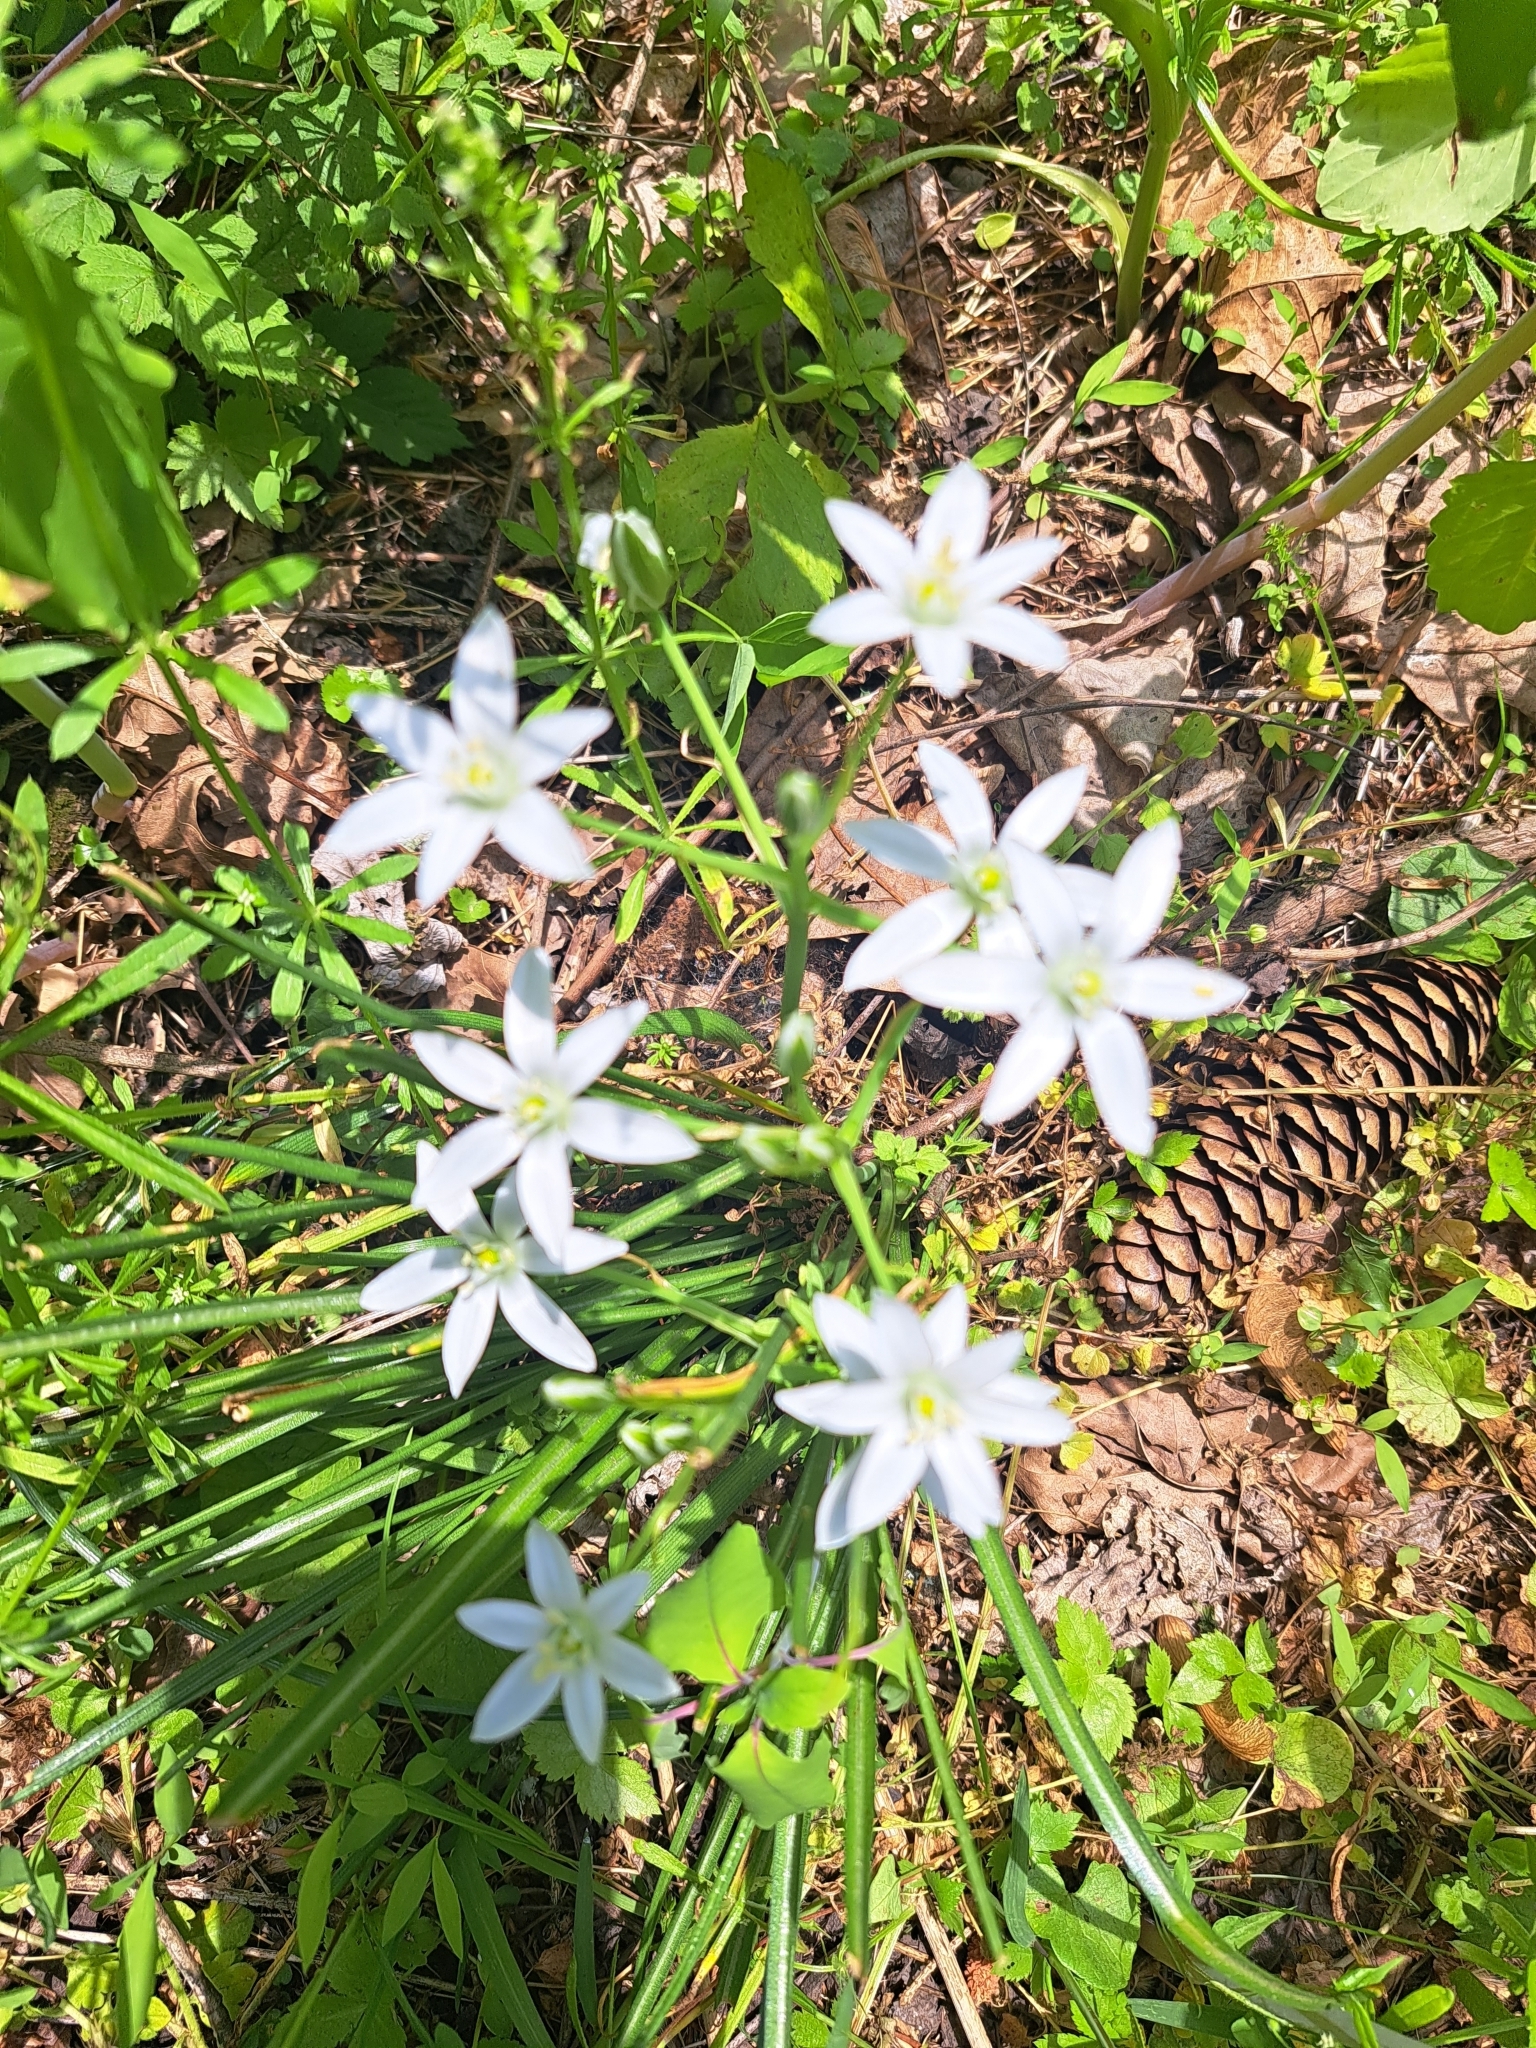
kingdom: Plantae
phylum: Tracheophyta
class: Liliopsida
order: Asparagales
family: Asparagaceae
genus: Ornithogalum
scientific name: Ornithogalum umbellatum
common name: Garden star-of-bethlehem
